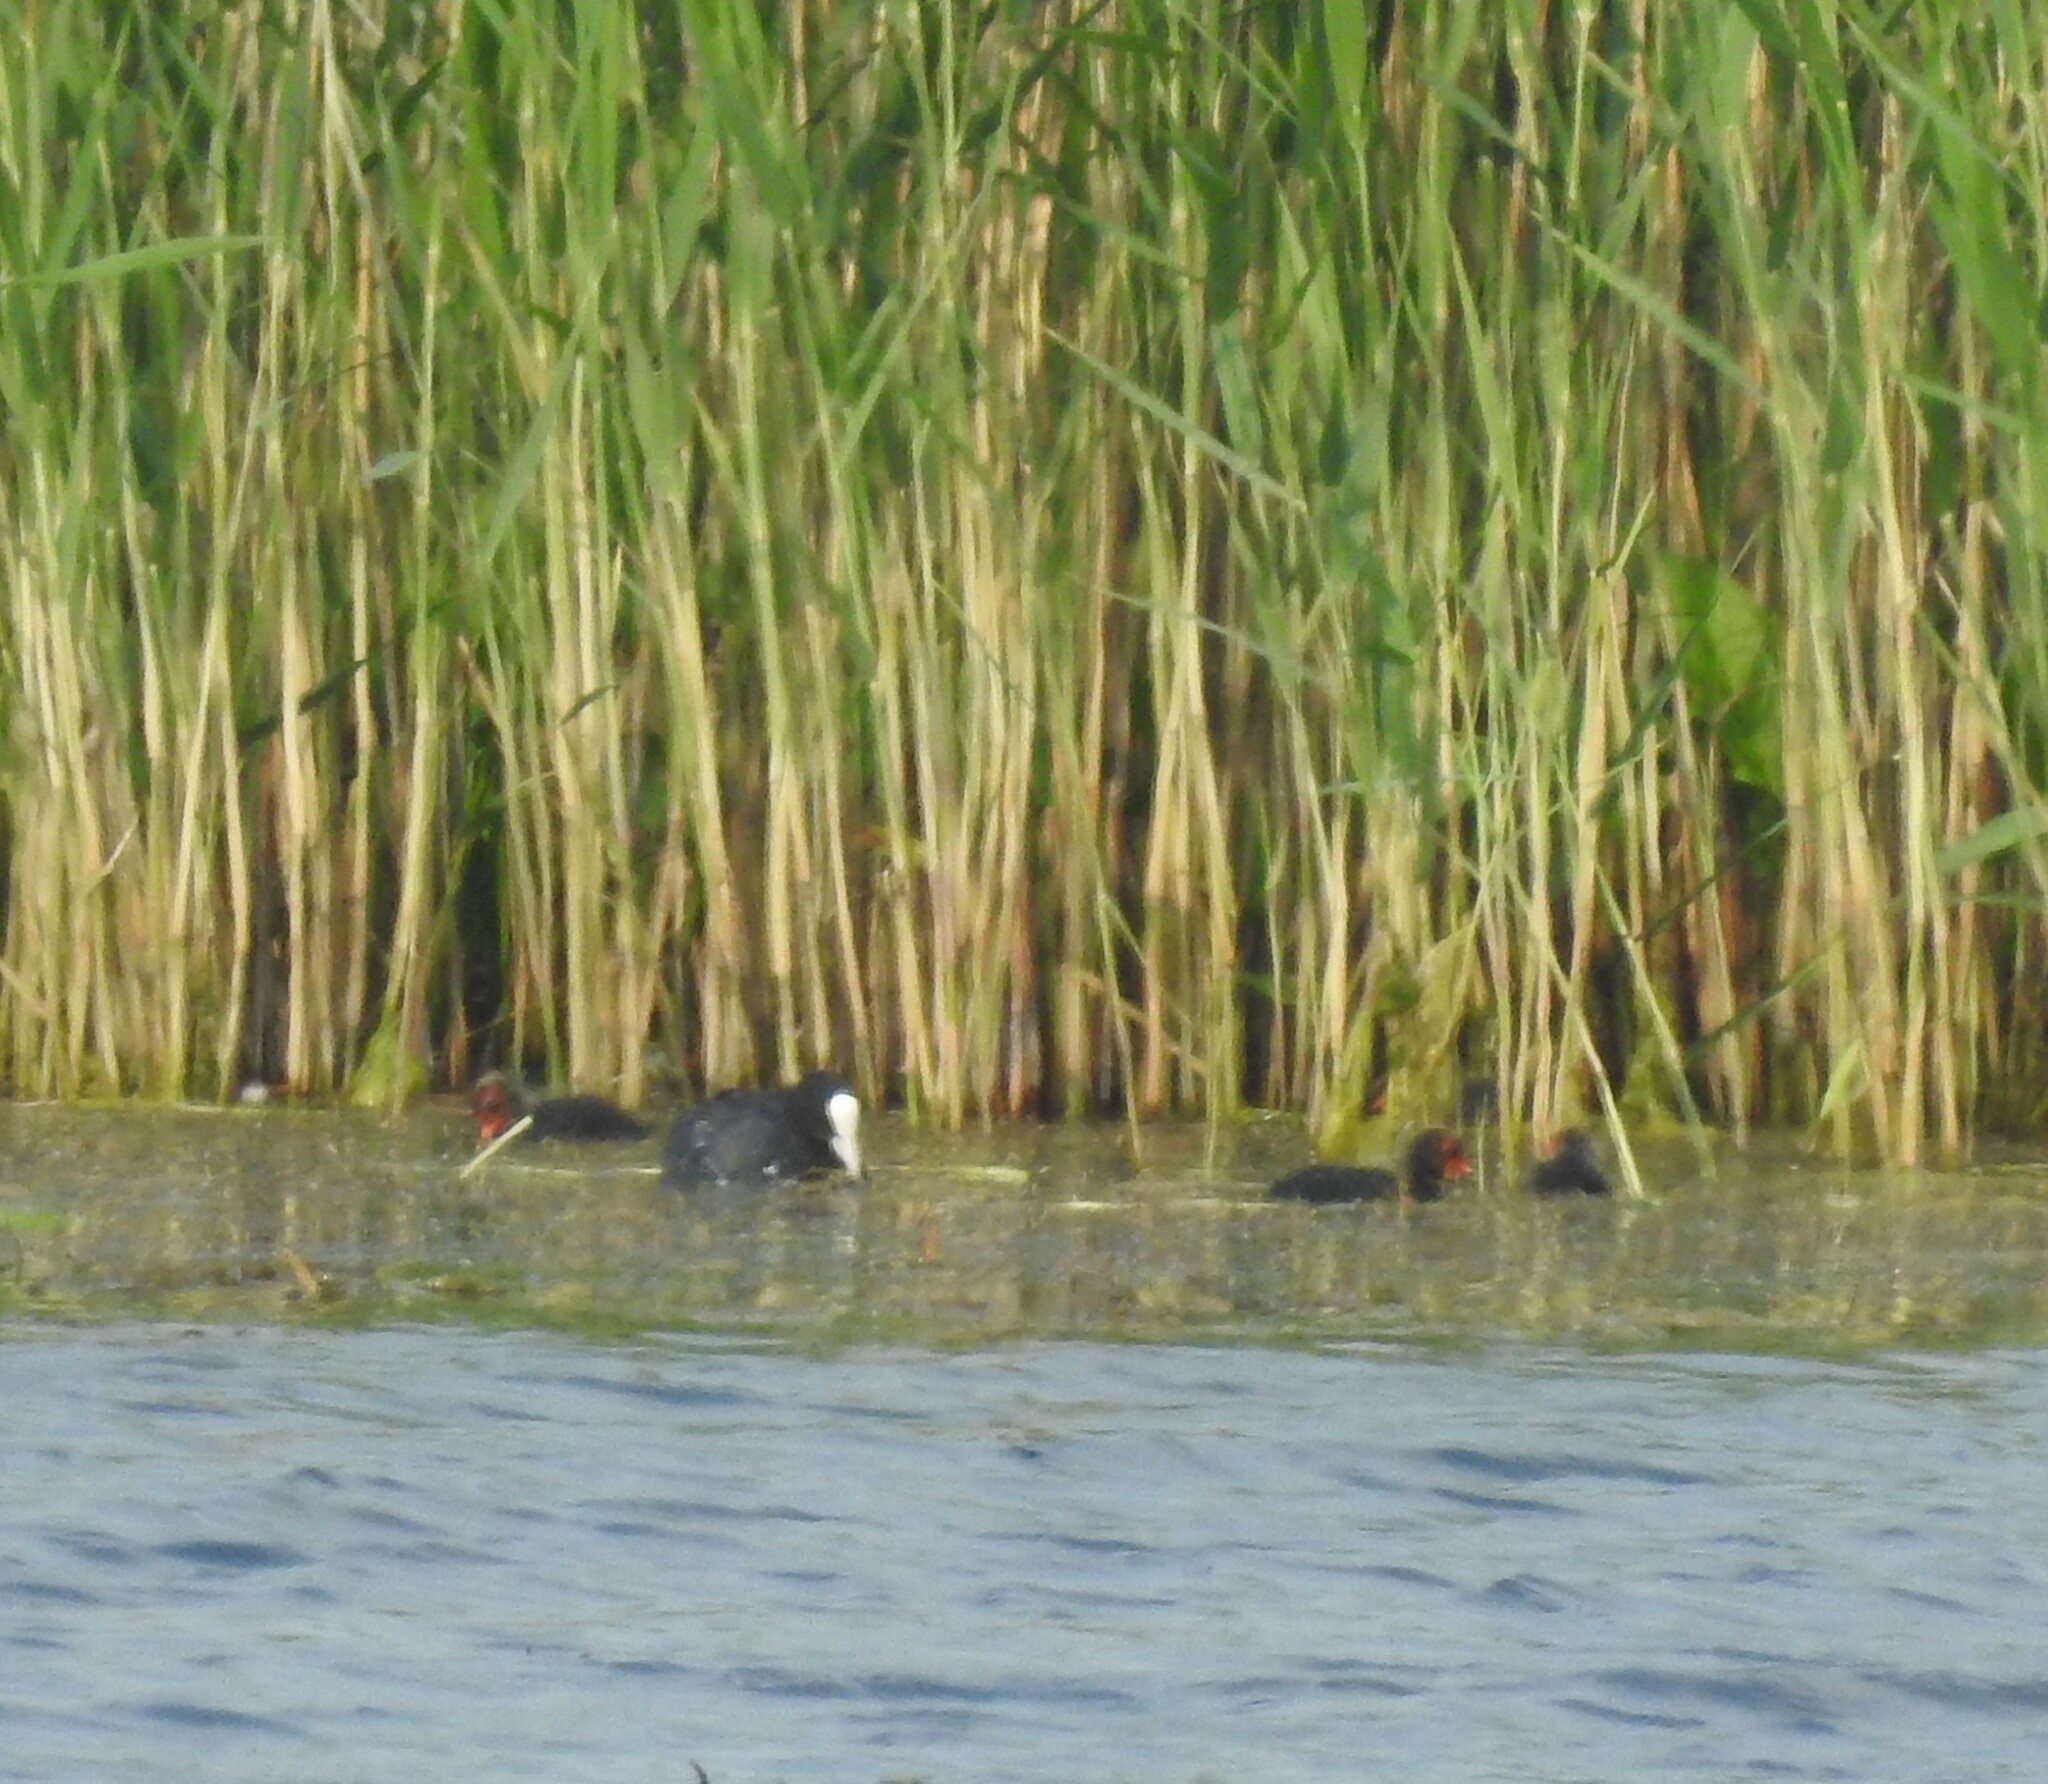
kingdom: Animalia
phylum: Chordata
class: Aves
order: Gruiformes
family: Rallidae
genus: Fulica
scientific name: Fulica atra
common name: Eurasian coot
